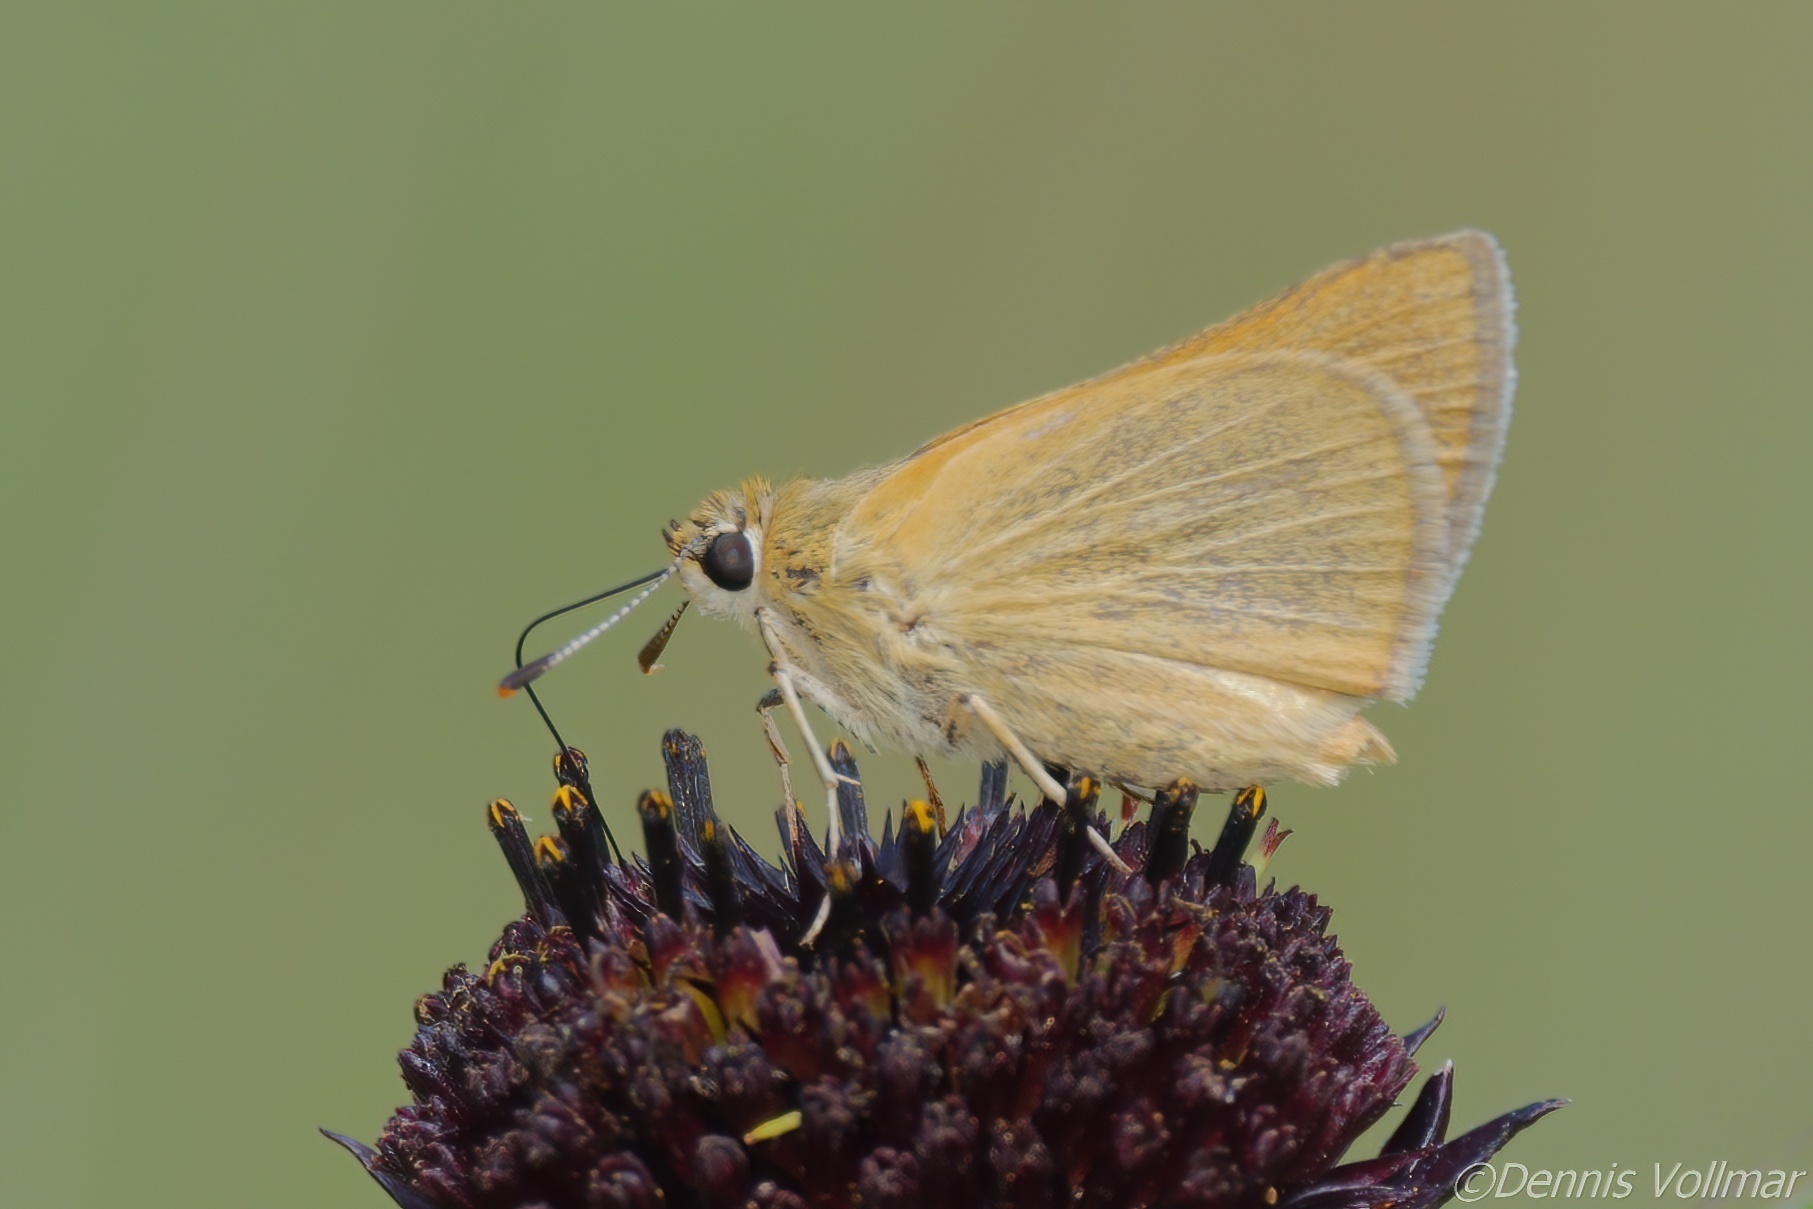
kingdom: Animalia
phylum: Arthropoda
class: Insecta
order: Lepidoptera
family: Hesperiidae
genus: Atrytone
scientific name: Atrytone arogos
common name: Arogos skipper
